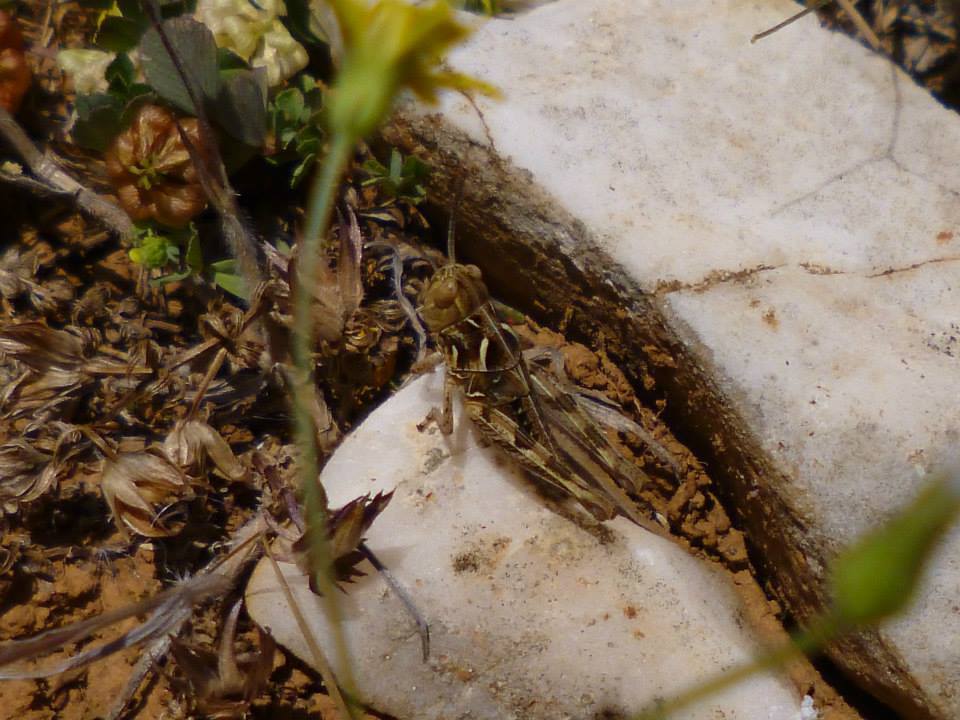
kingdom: Animalia
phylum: Arthropoda
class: Insecta
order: Orthoptera
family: Acrididae
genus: Dociostaurus
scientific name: Dociostaurus maroccanus
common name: Moroccan locust
